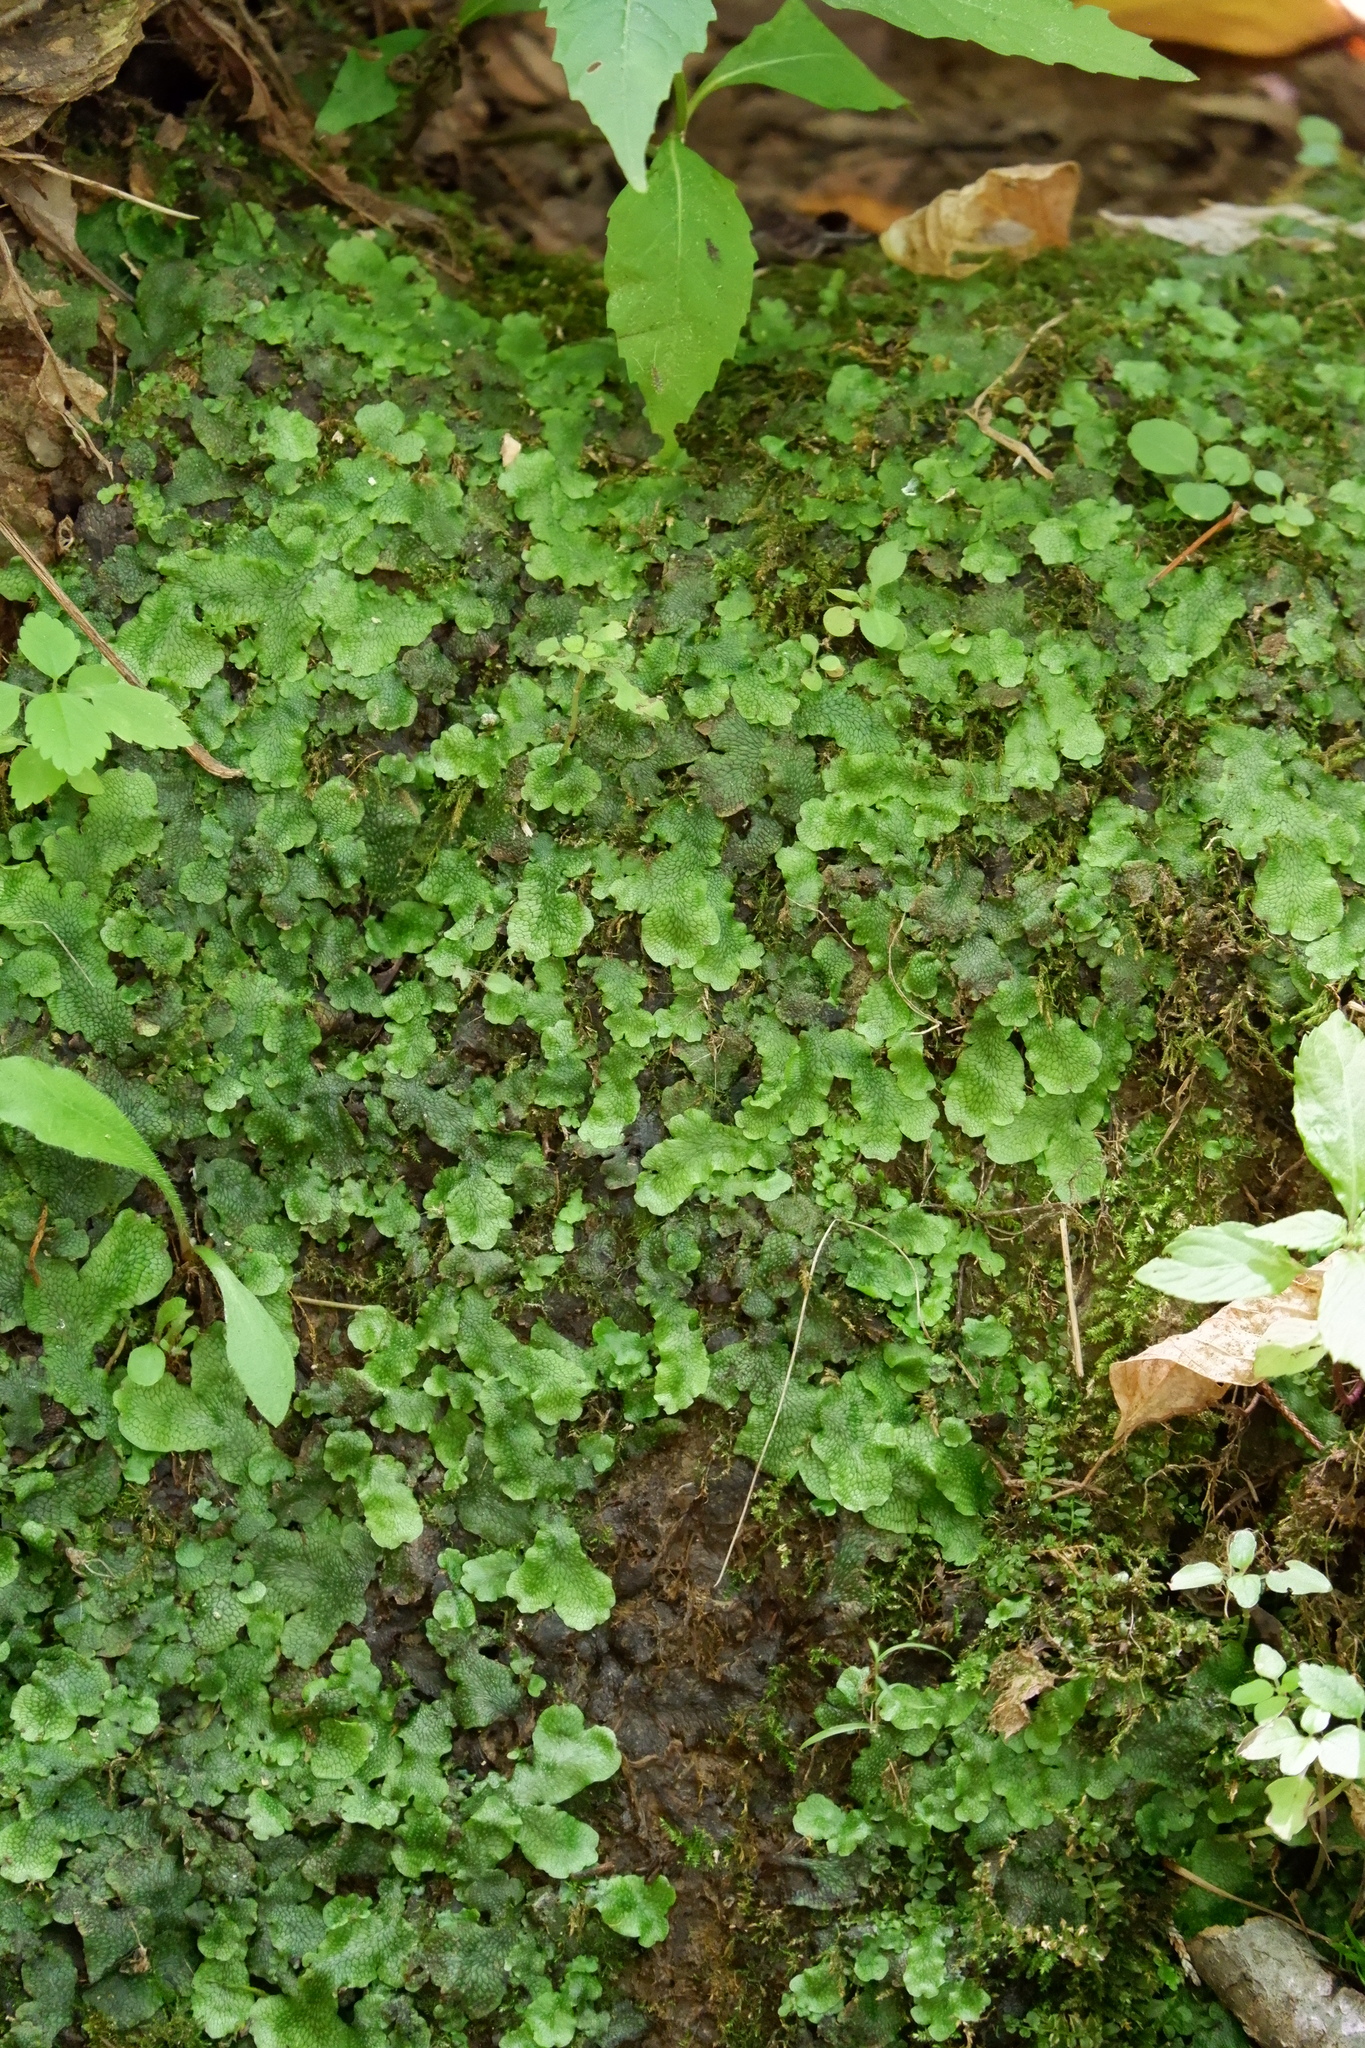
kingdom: Plantae
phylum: Marchantiophyta
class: Marchantiopsida
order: Marchantiales
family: Conocephalaceae
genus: Conocephalum
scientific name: Conocephalum salebrosum
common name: Cat-tongue liverwort
